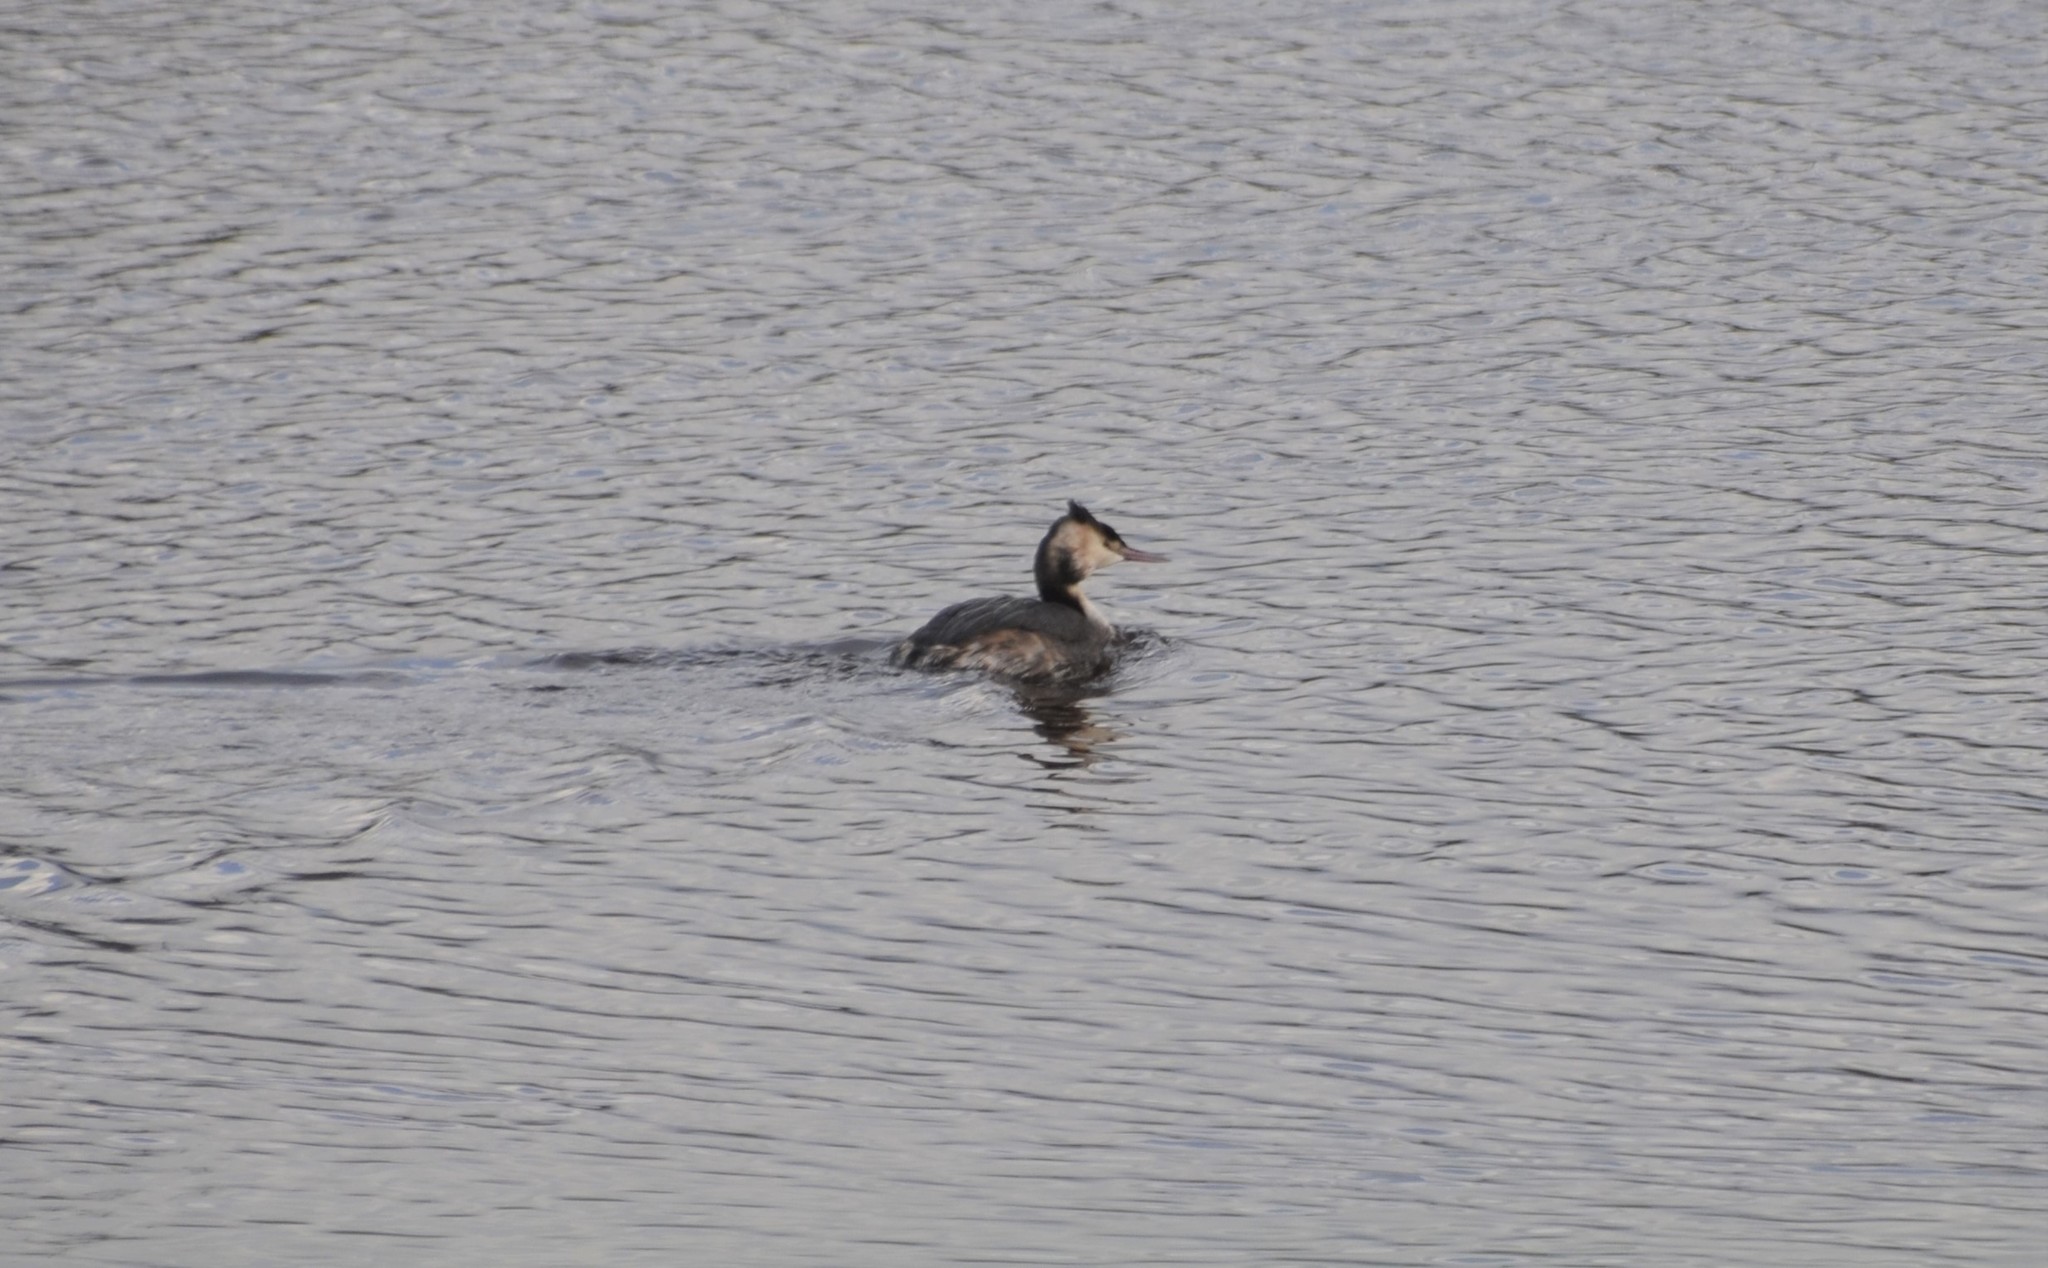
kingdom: Animalia
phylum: Chordata
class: Aves
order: Podicipediformes
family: Podicipedidae
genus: Podiceps
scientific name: Podiceps cristatus
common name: Great crested grebe
